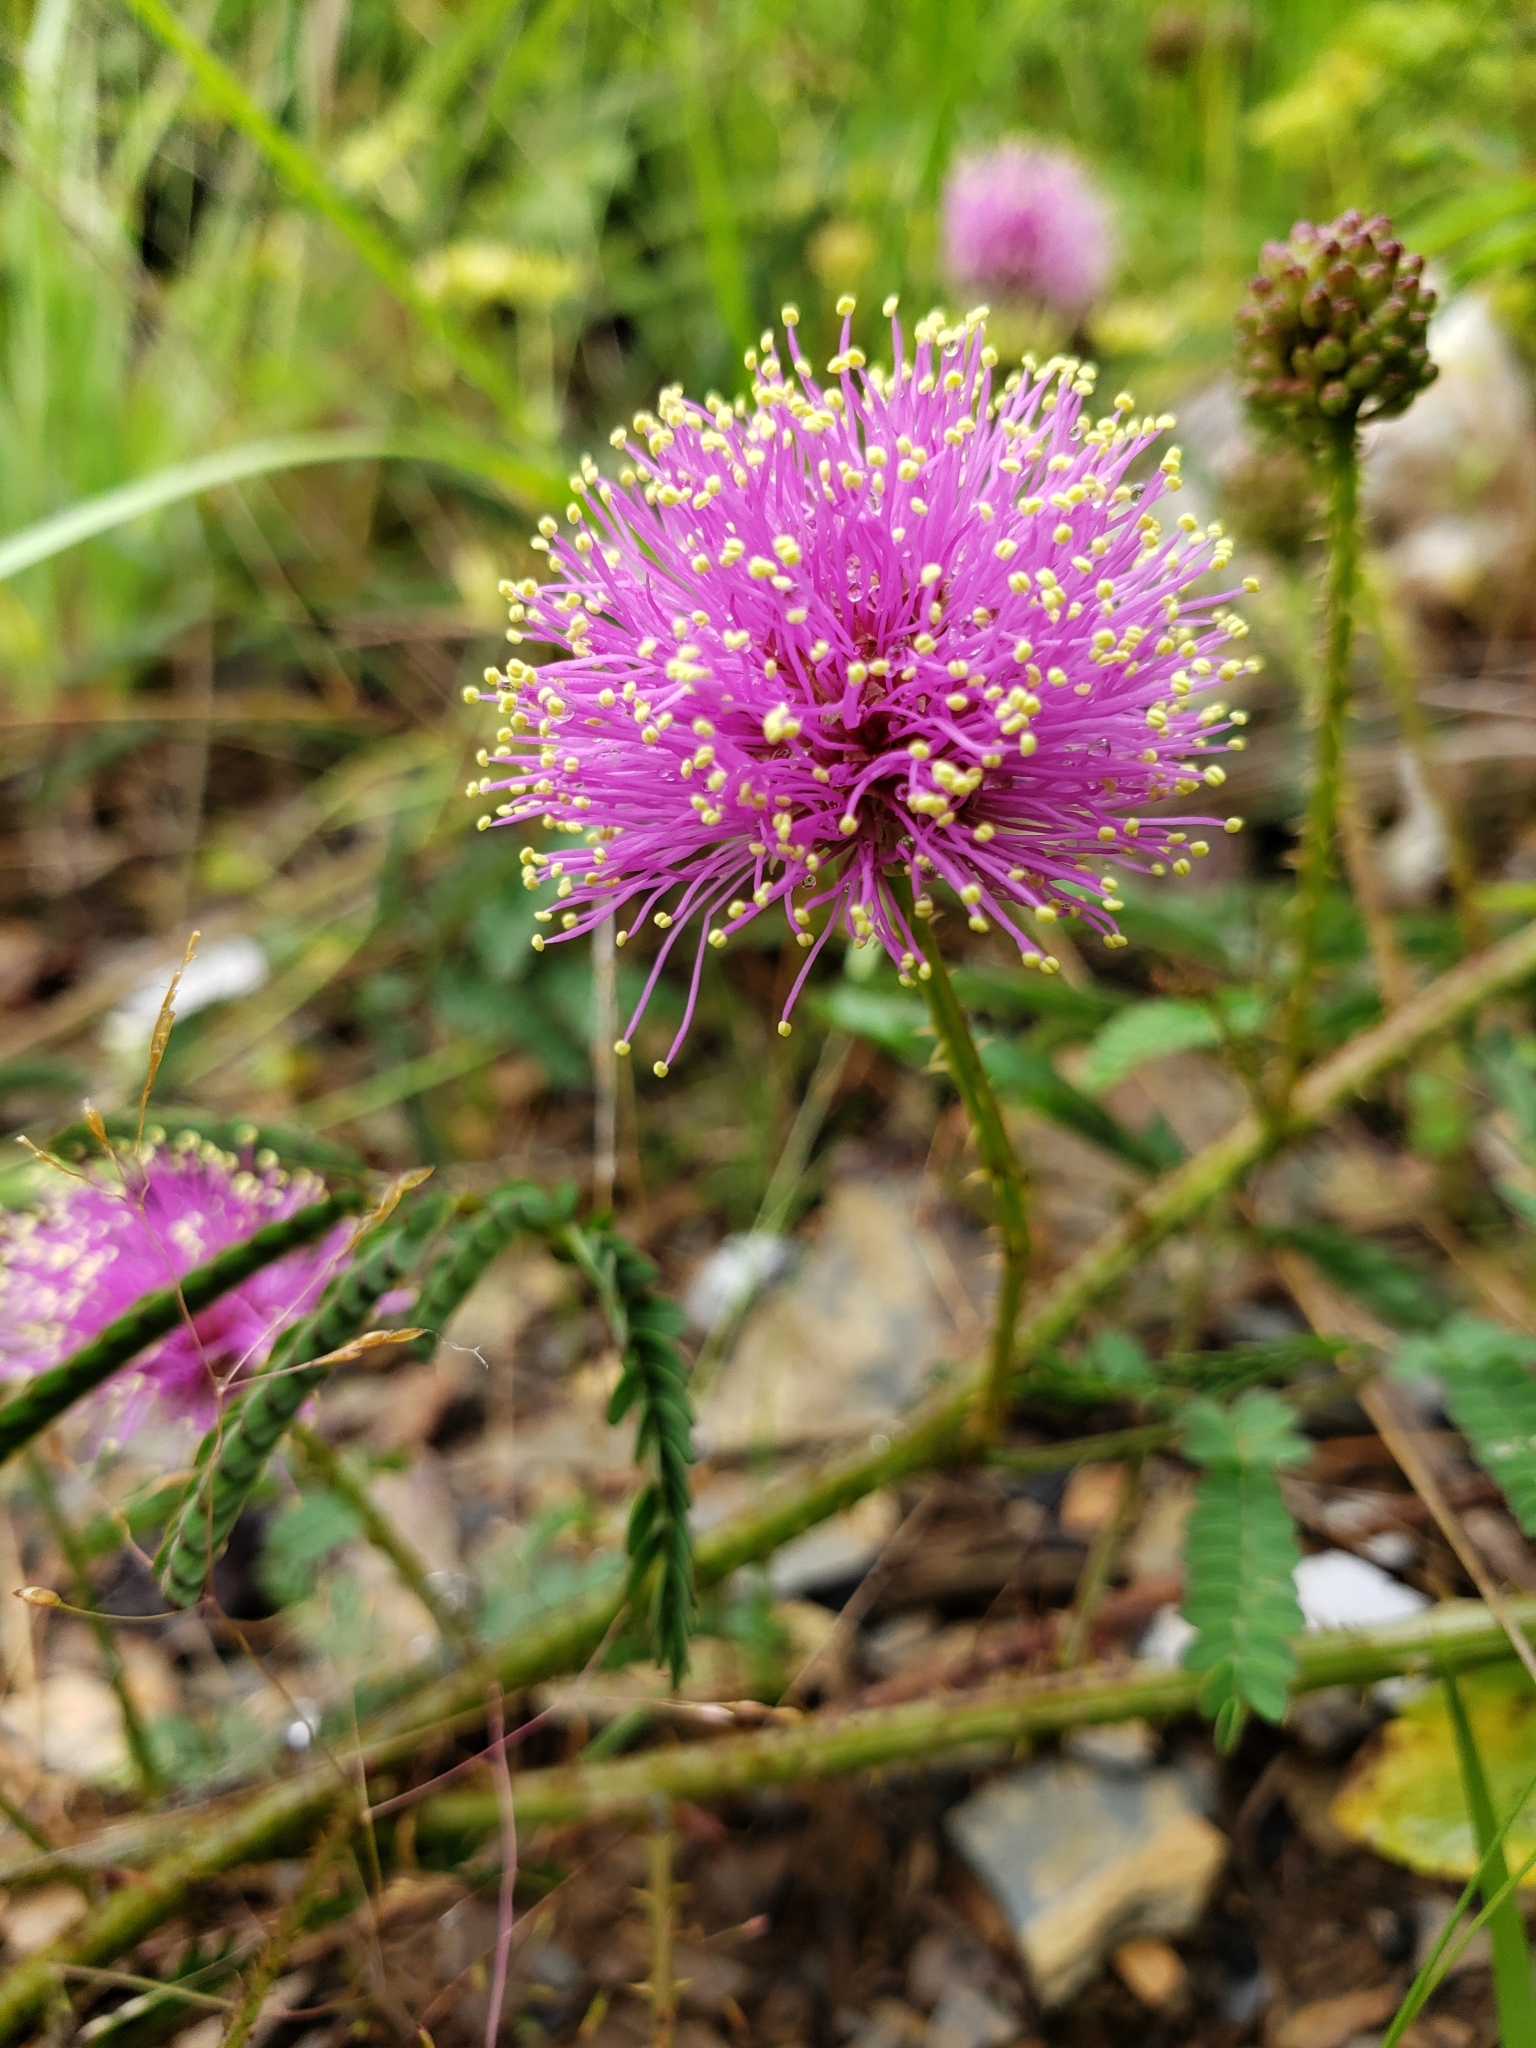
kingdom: Plantae
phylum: Tracheophyta
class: Magnoliopsida
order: Fabales
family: Fabaceae
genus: Mimosa
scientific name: Mimosa quadrivalvis
